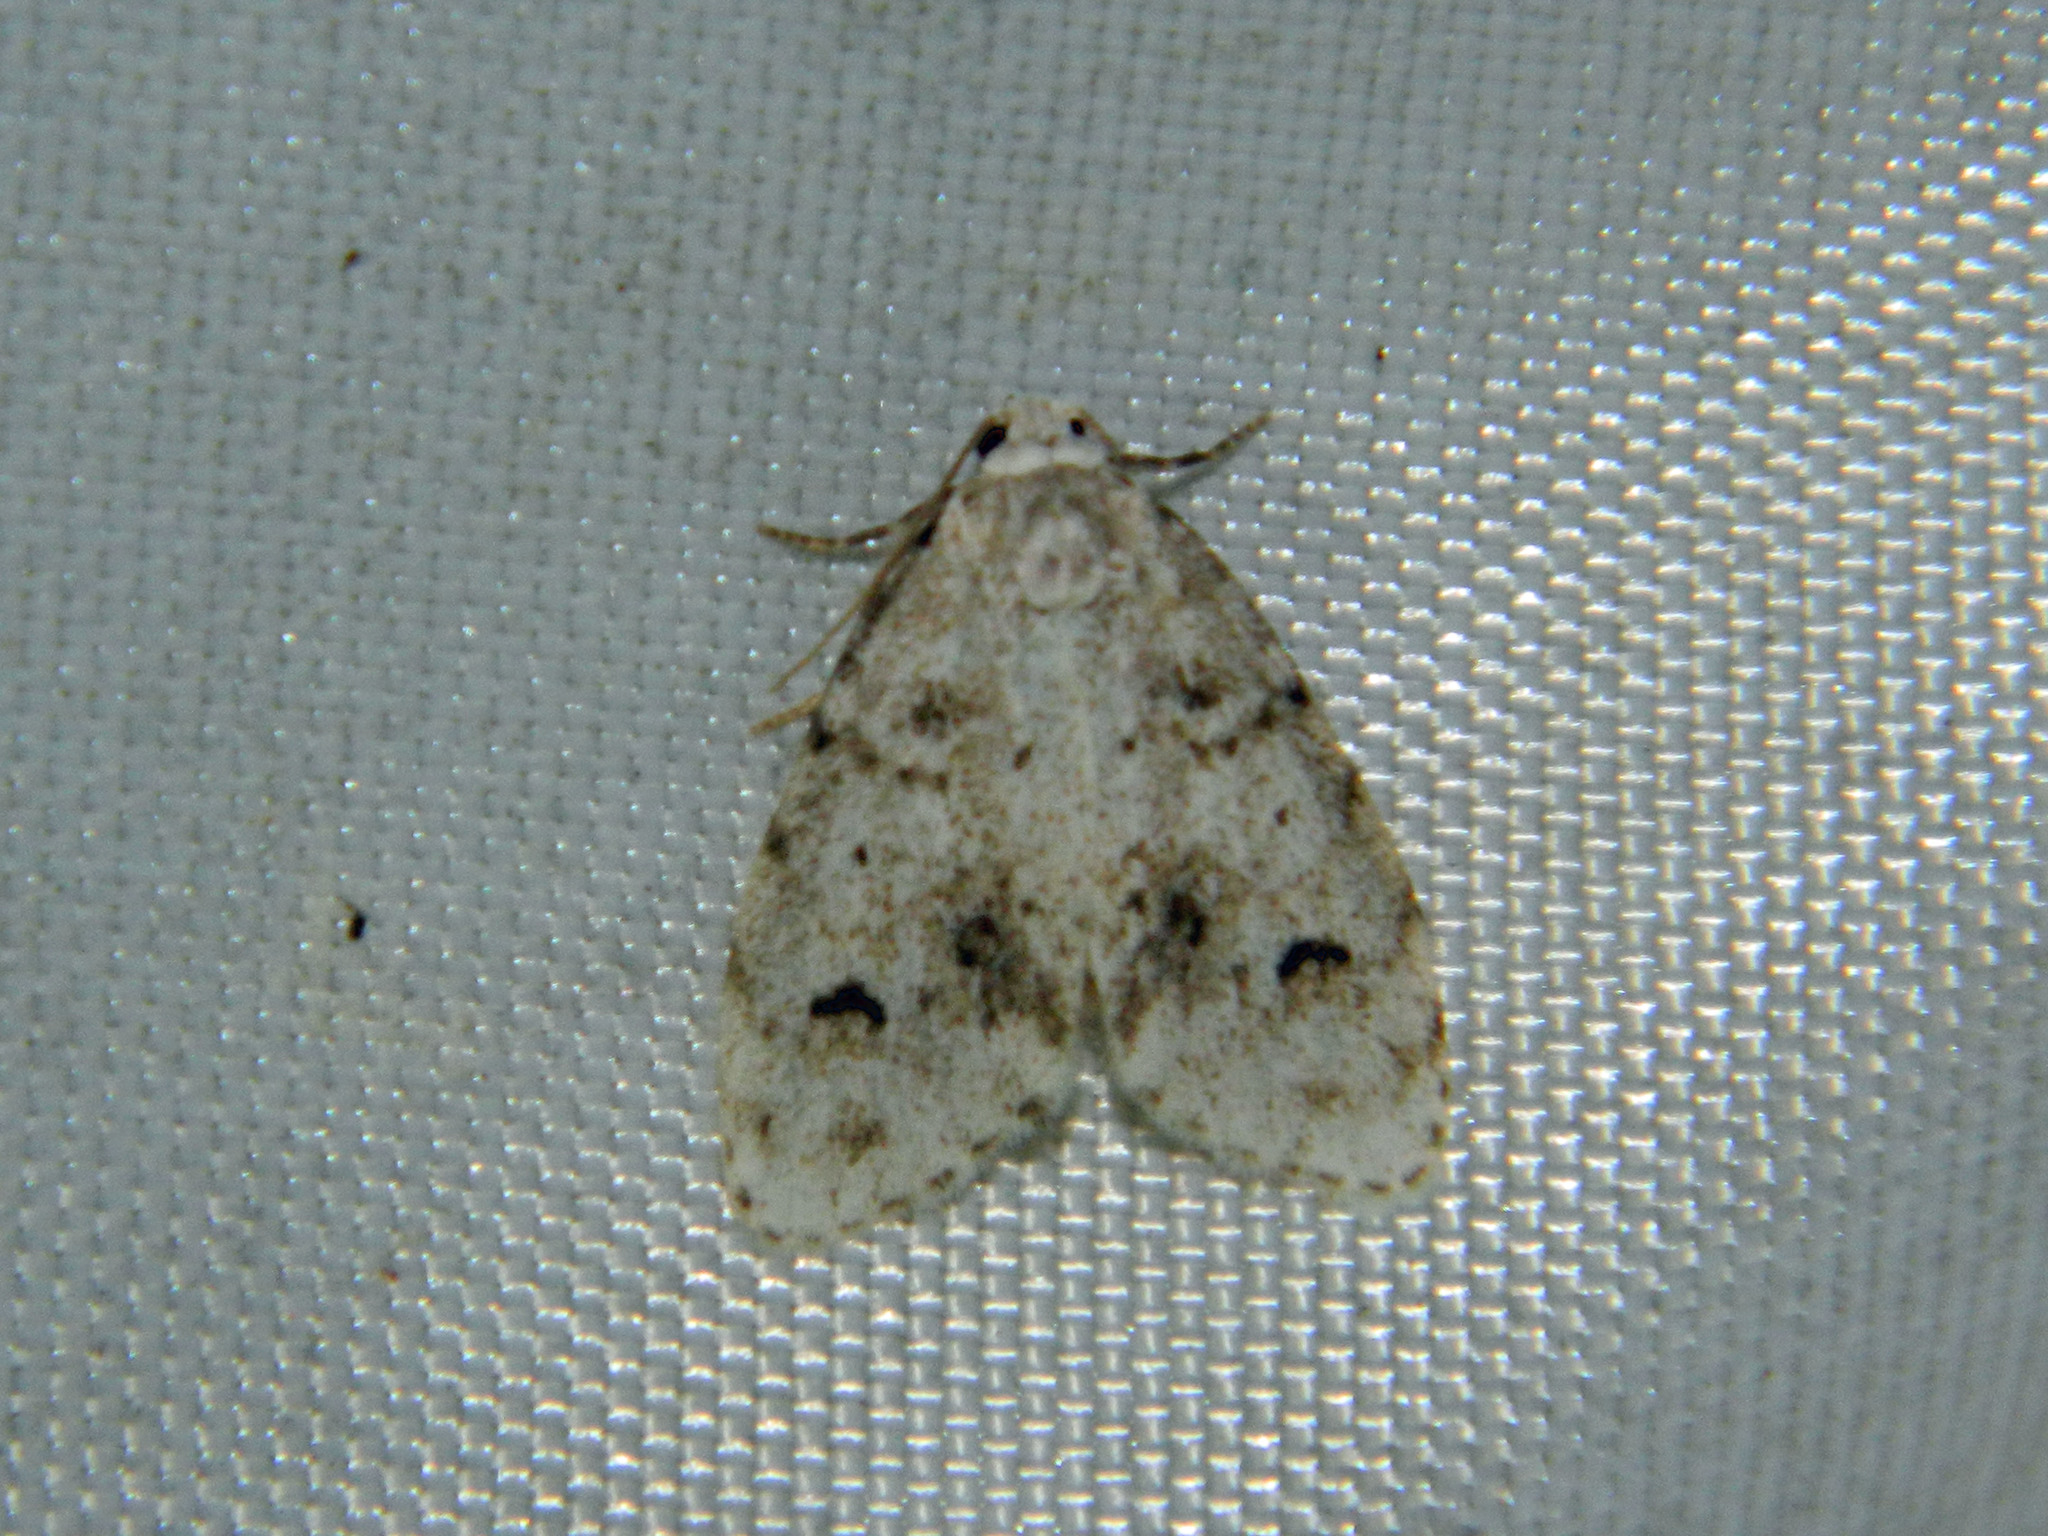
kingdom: Animalia
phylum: Arthropoda
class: Insecta
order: Lepidoptera
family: Erebidae
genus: Clemensia
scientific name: Clemensia umbrata
